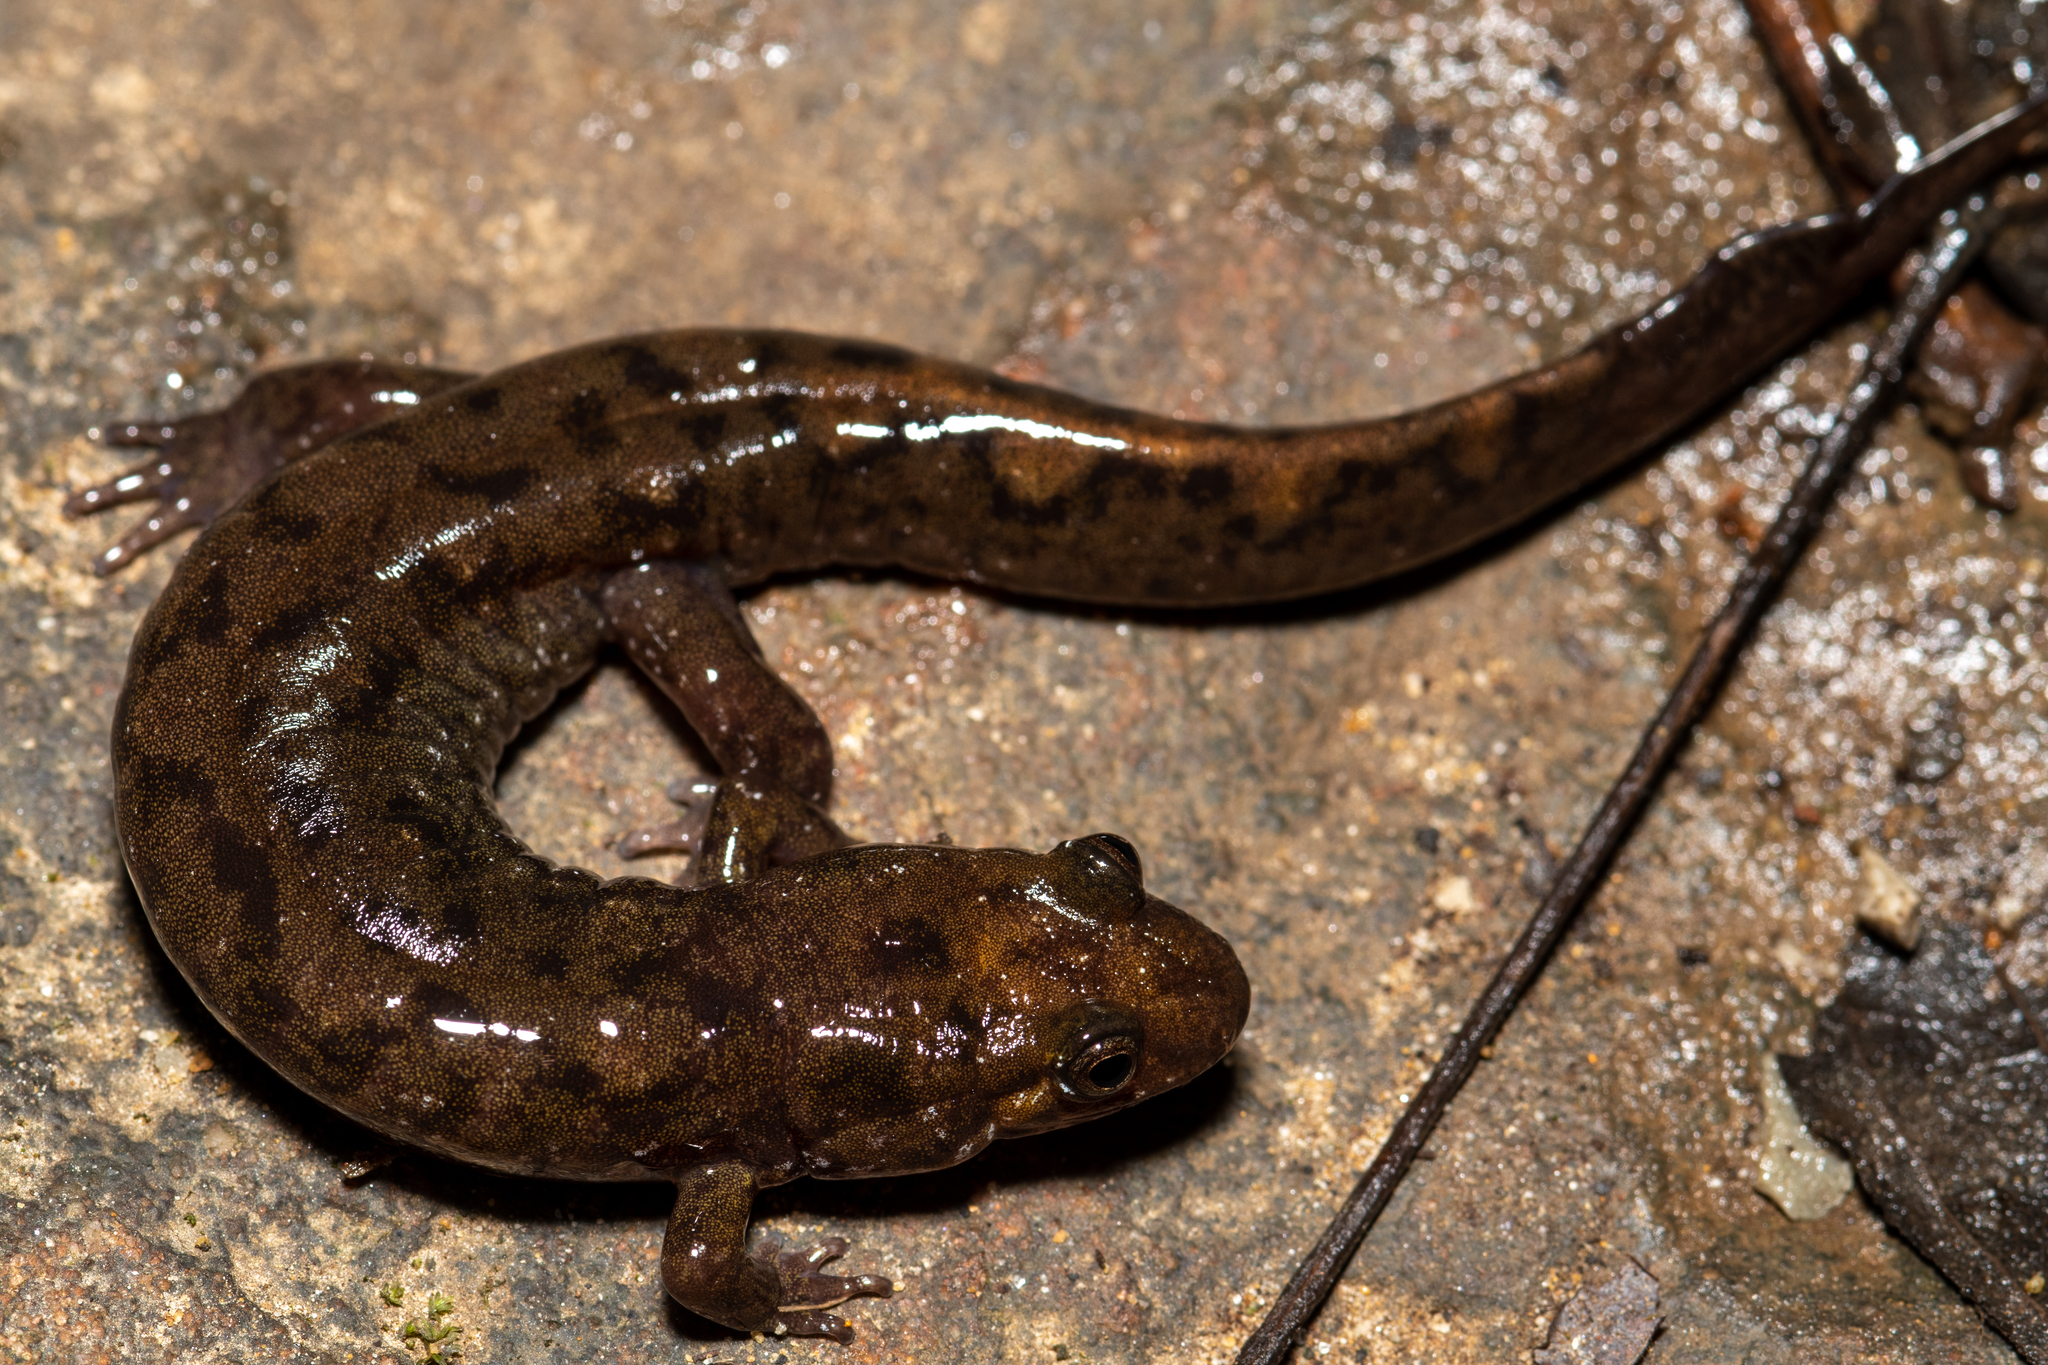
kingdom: Animalia
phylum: Chordata
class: Amphibia
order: Caudata
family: Plethodontidae
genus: Desmognathus
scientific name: Desmognathus monticola
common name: Seal salamander
